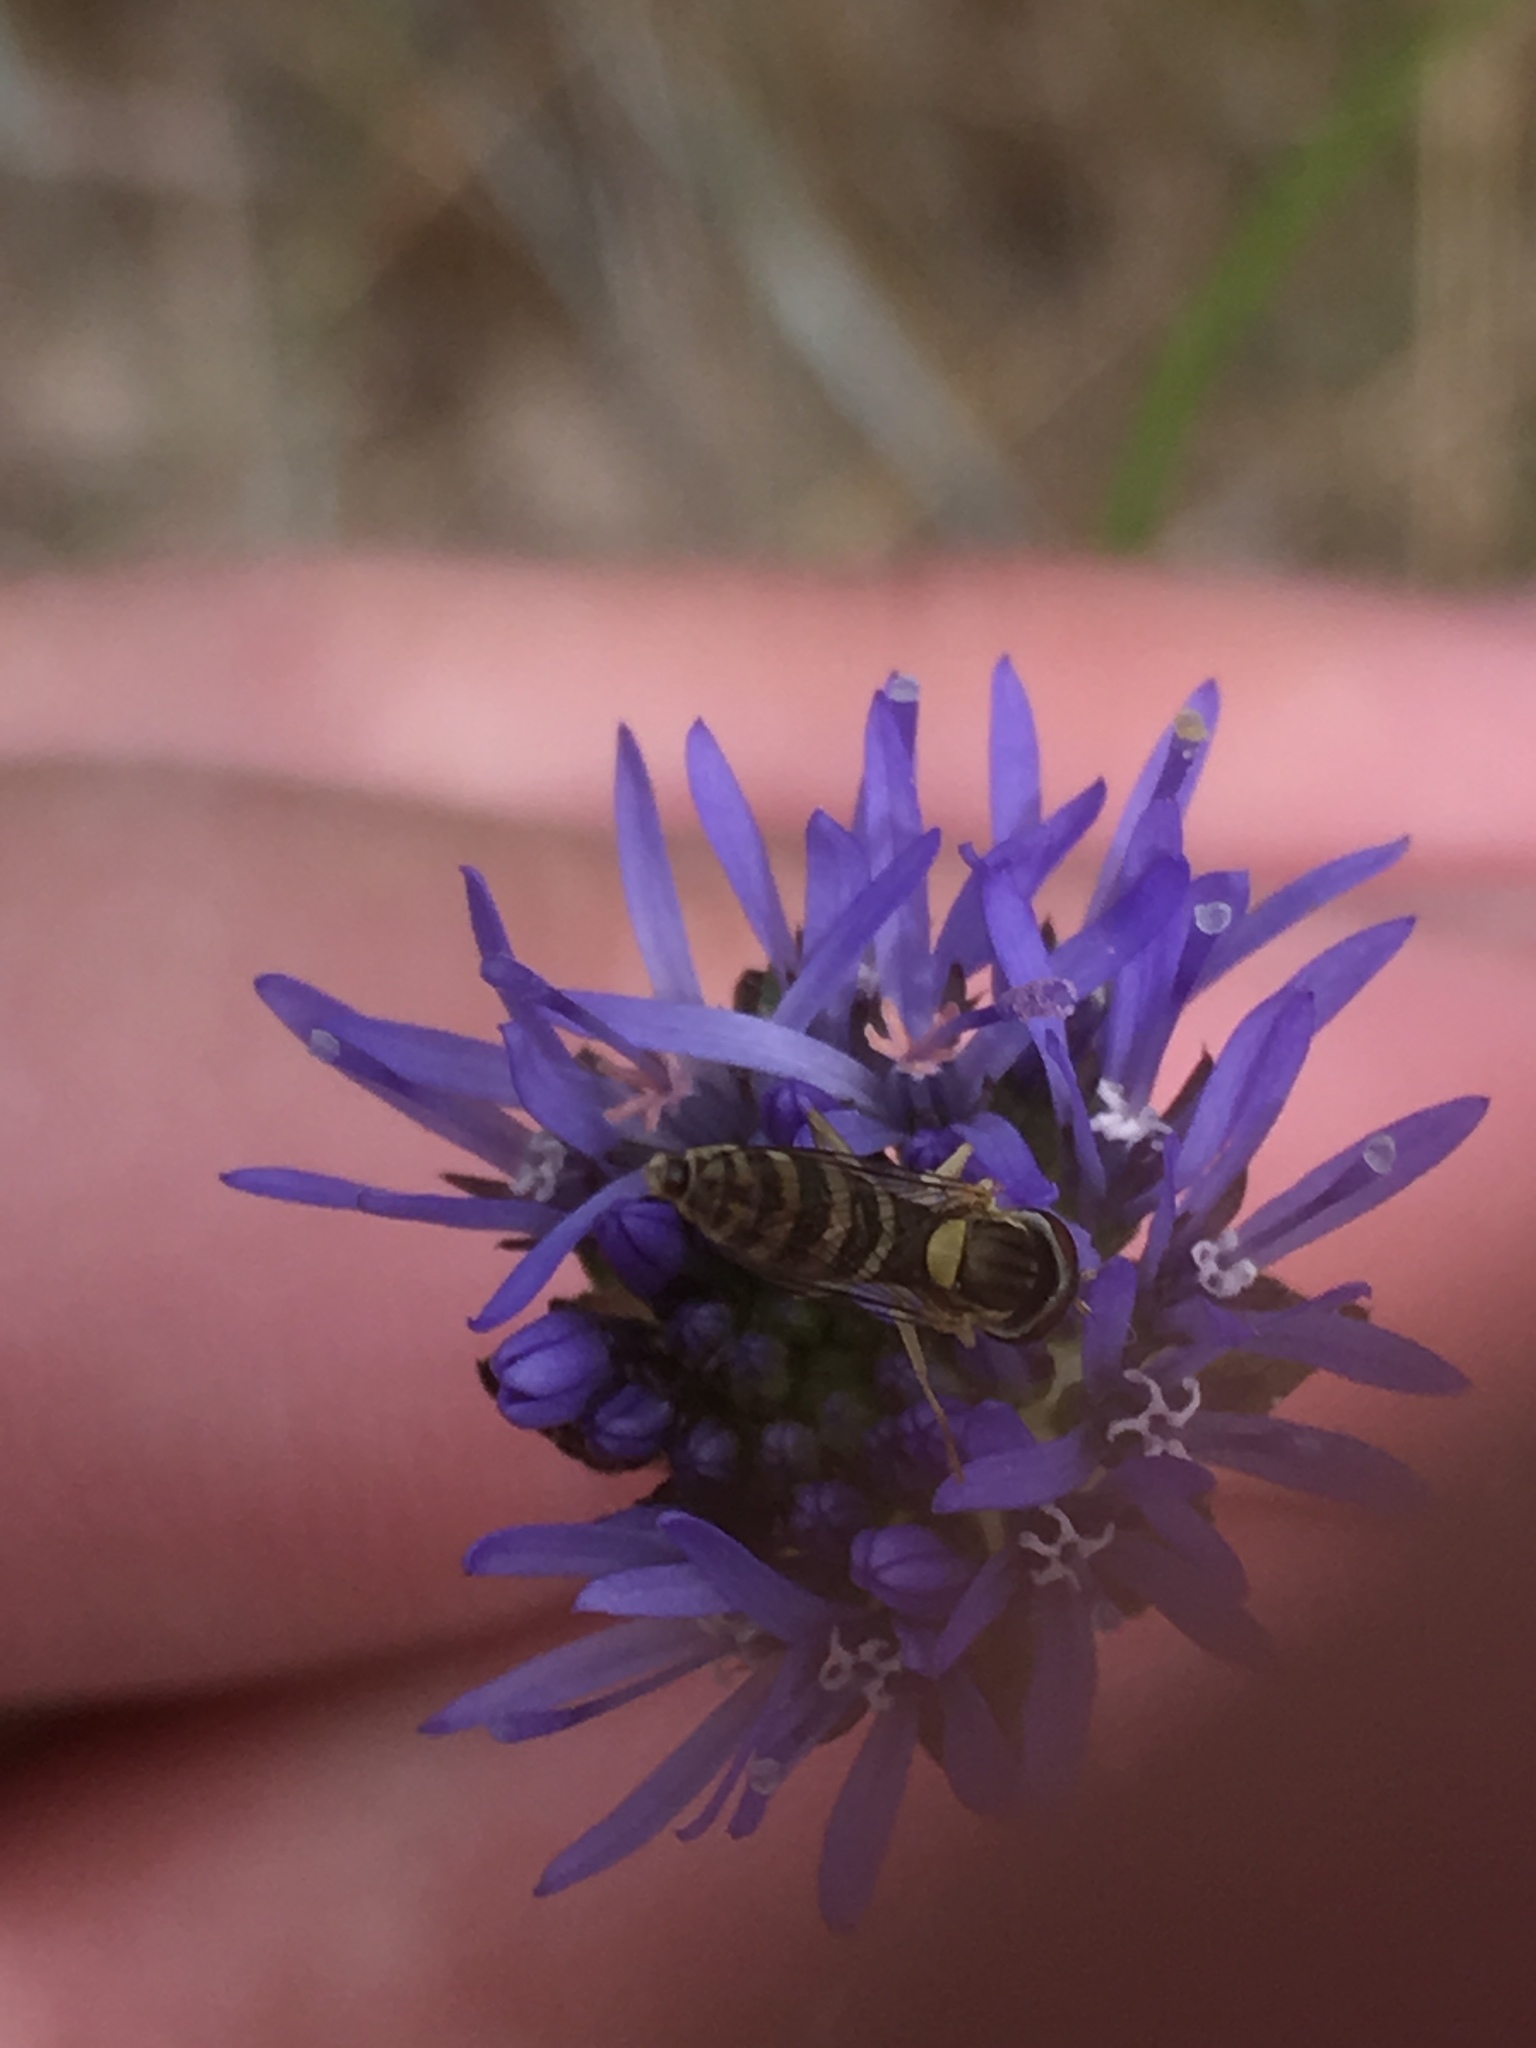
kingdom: Animalia
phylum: Arthropoda
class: Insecta
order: Diptera
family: Syrphidae
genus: Sphaerophoria
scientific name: Sphaerophoria
